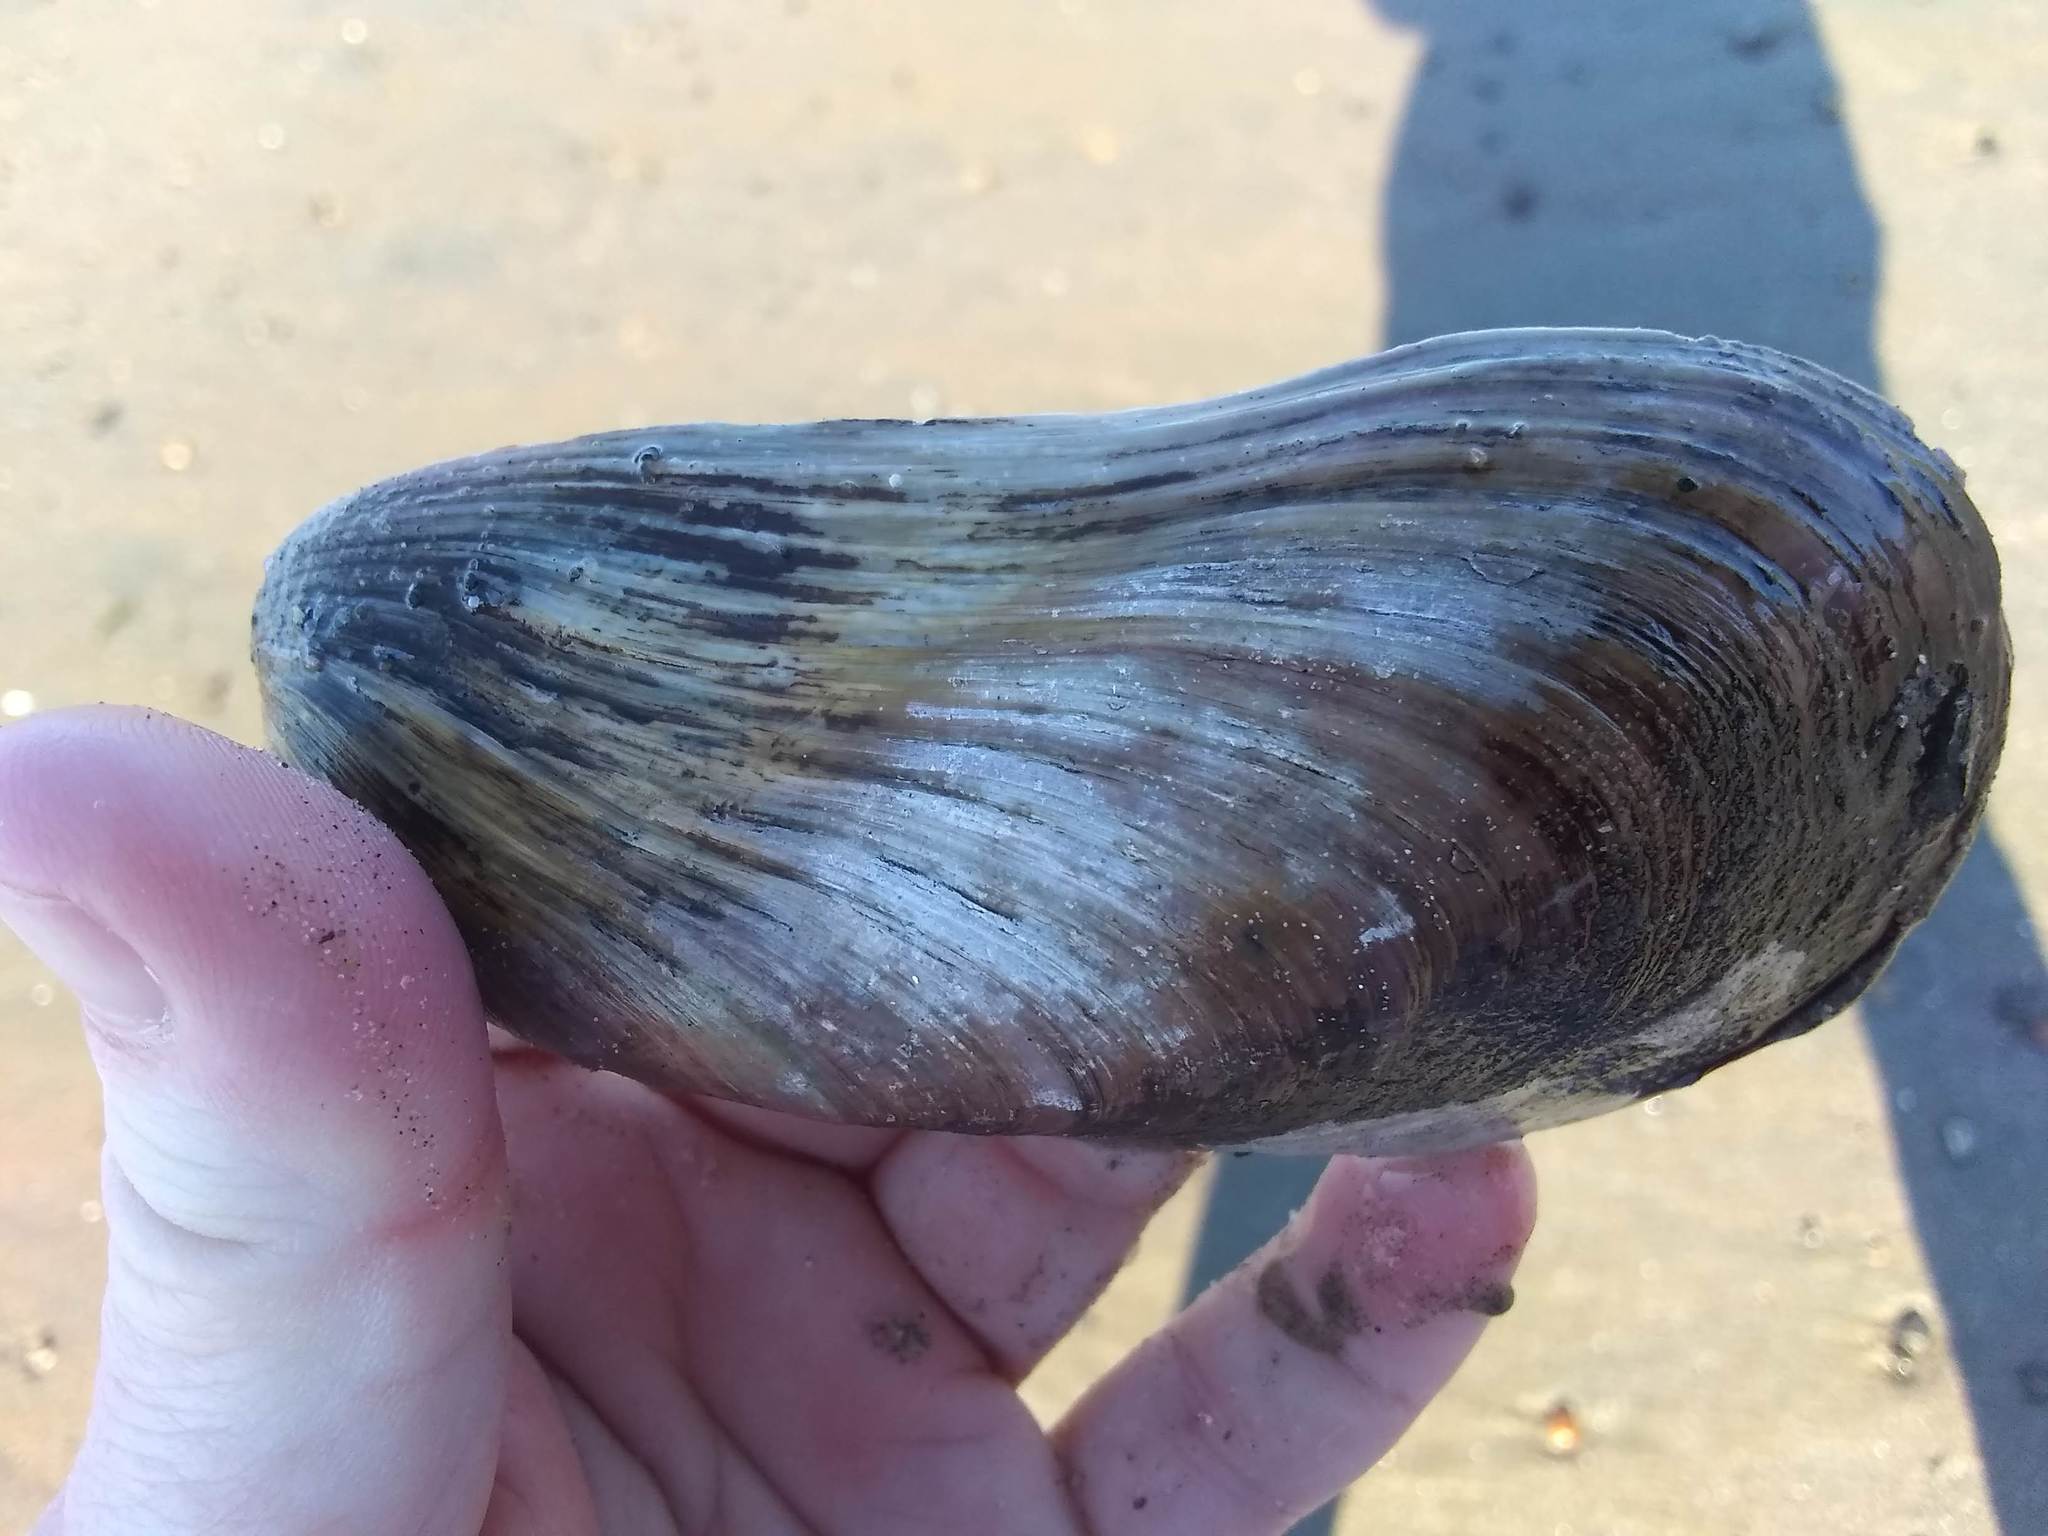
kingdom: Animalia
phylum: Mollusca
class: Bivalvia
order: Mytilida
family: Mytilidae
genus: Modiolus
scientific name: Modiolus modiolus
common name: Horse-mussel
